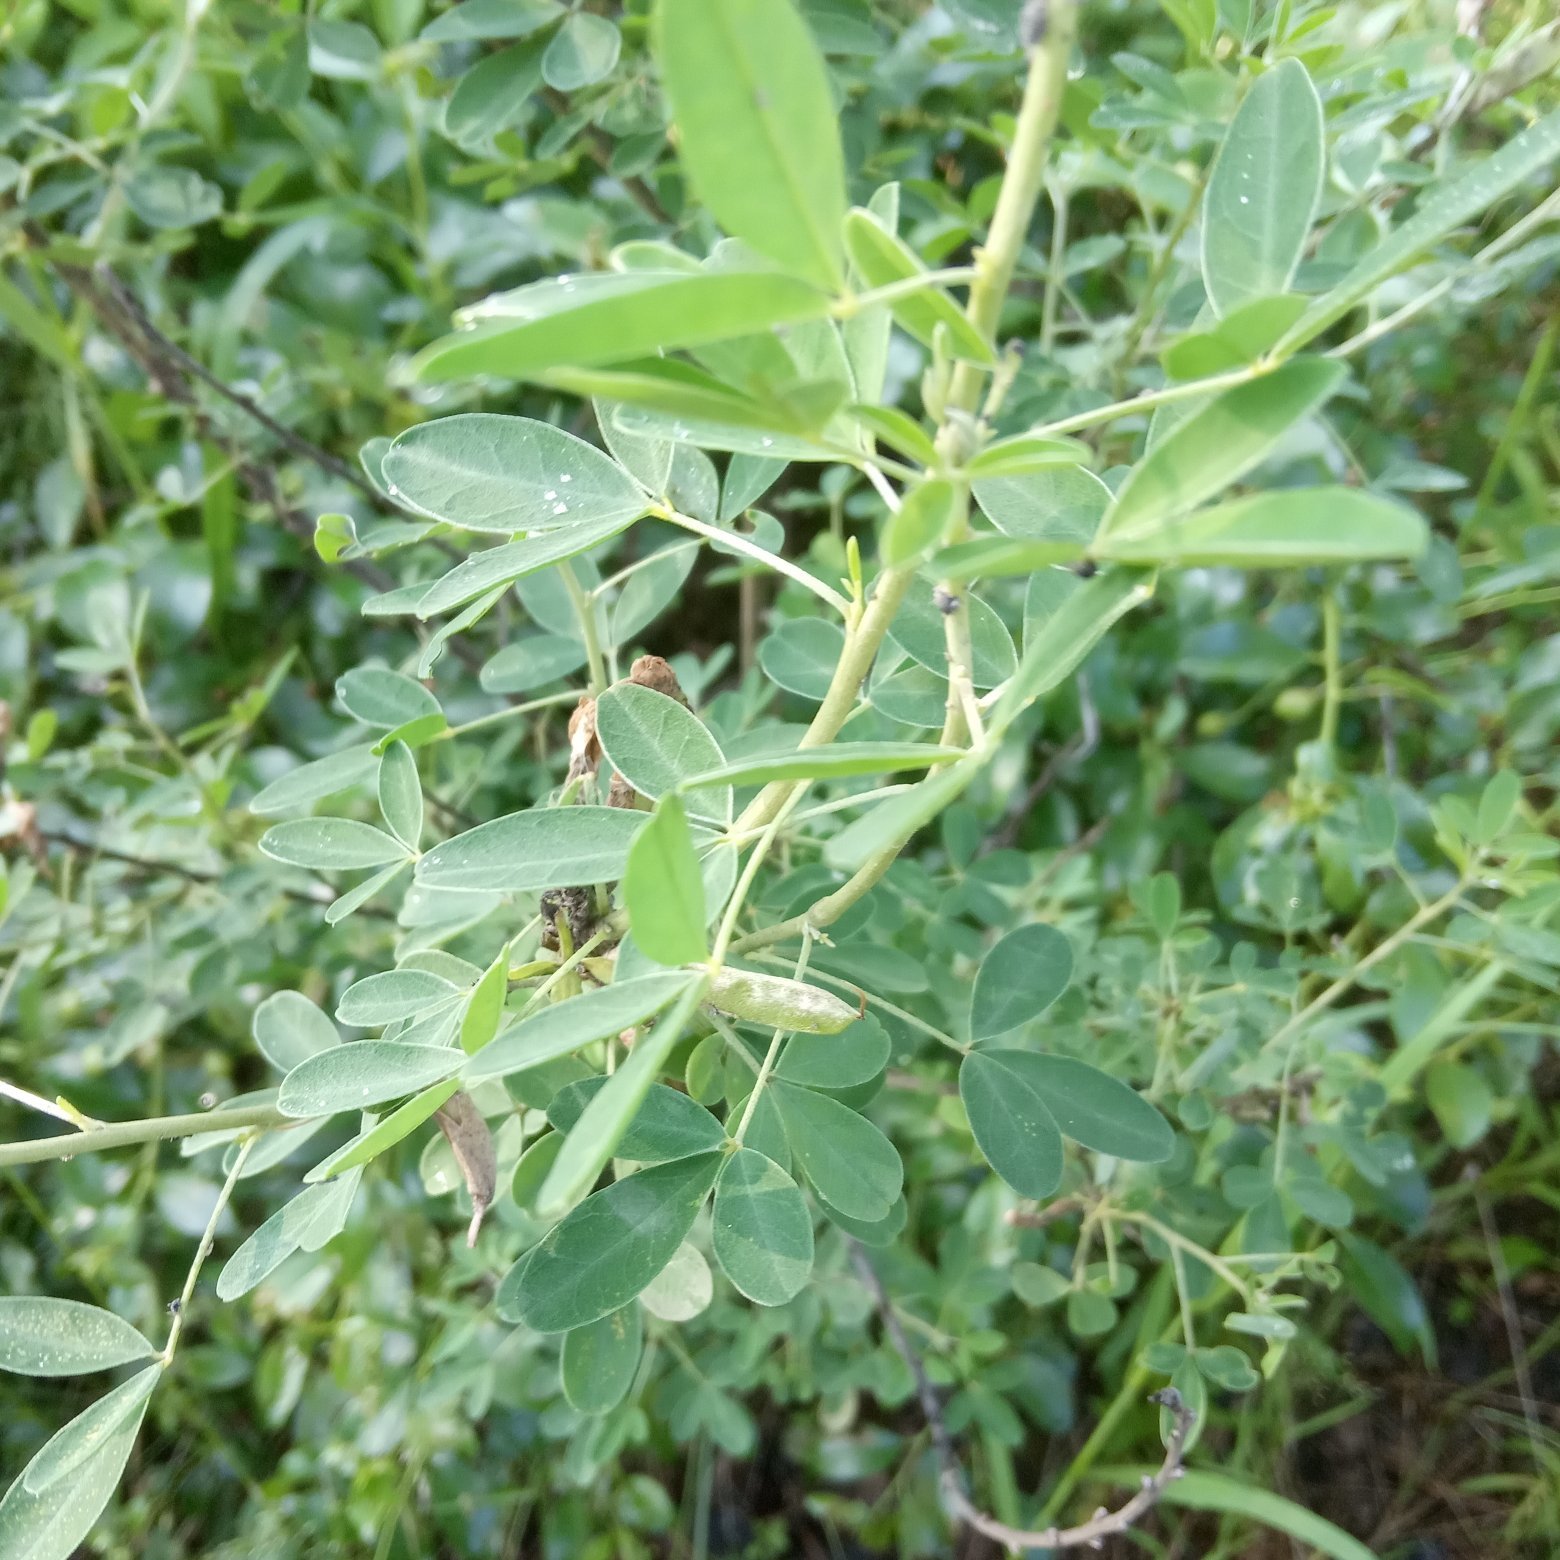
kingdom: Plantae
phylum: Tracheophyta
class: Magnoliopsida
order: Fabales
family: Fabaceae
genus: Chamaecytisus
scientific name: Chamaecytisus ruthenicus
